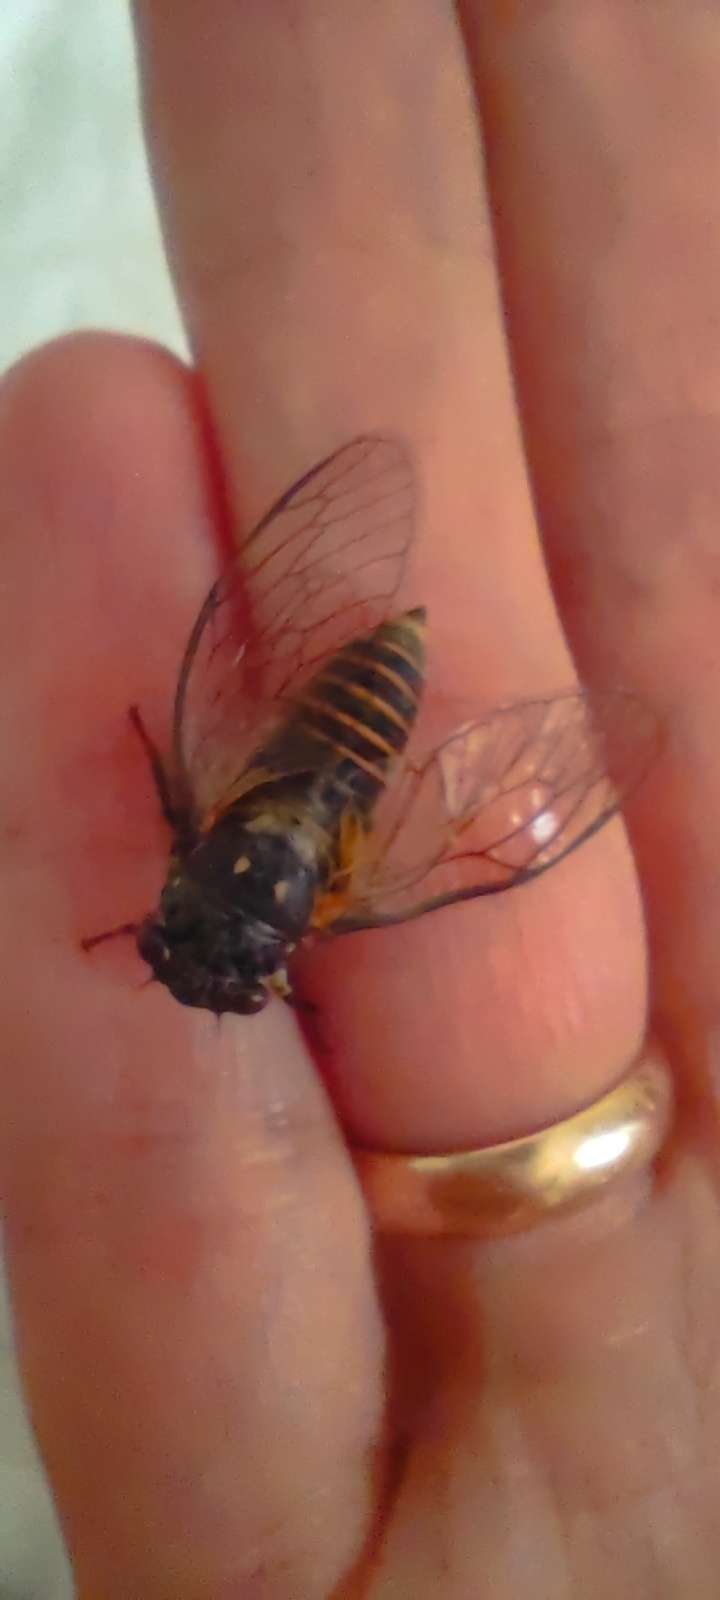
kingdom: Animalia
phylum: Arthropoda
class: Insecta
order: Hemiptera
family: Cicadidae
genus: Dimissalna
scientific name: Dimissalna dimissa
